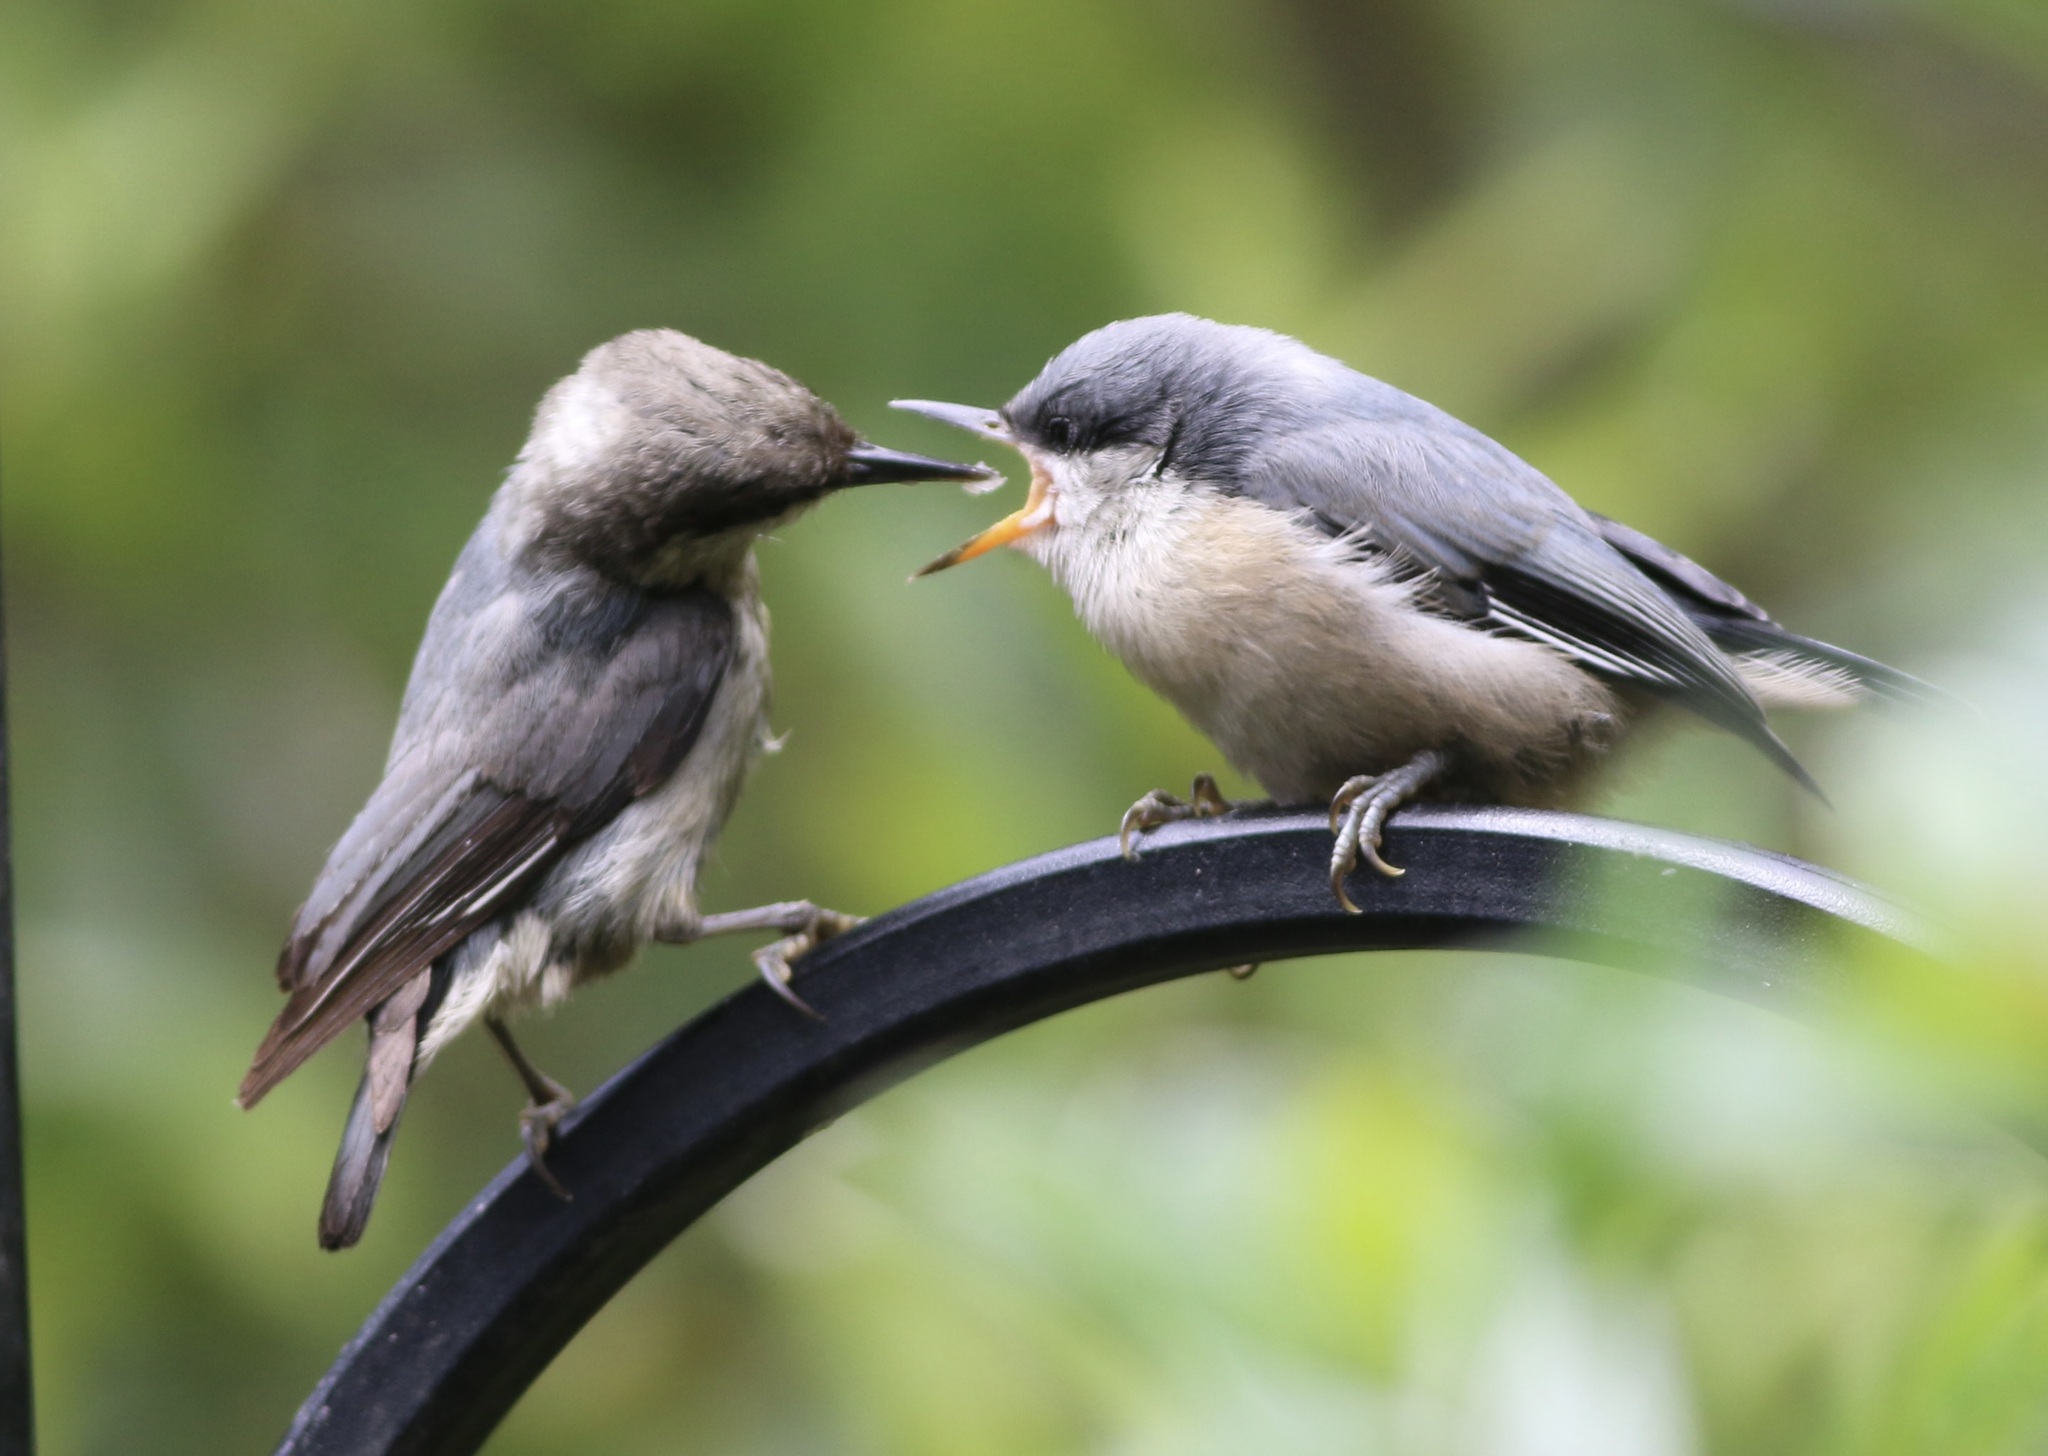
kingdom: Animalia
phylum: Chordata
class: Aves
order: Passeriformes
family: Sittidae
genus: Sitta
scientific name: Sitta pygmaea
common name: Pygmy nuthatch
